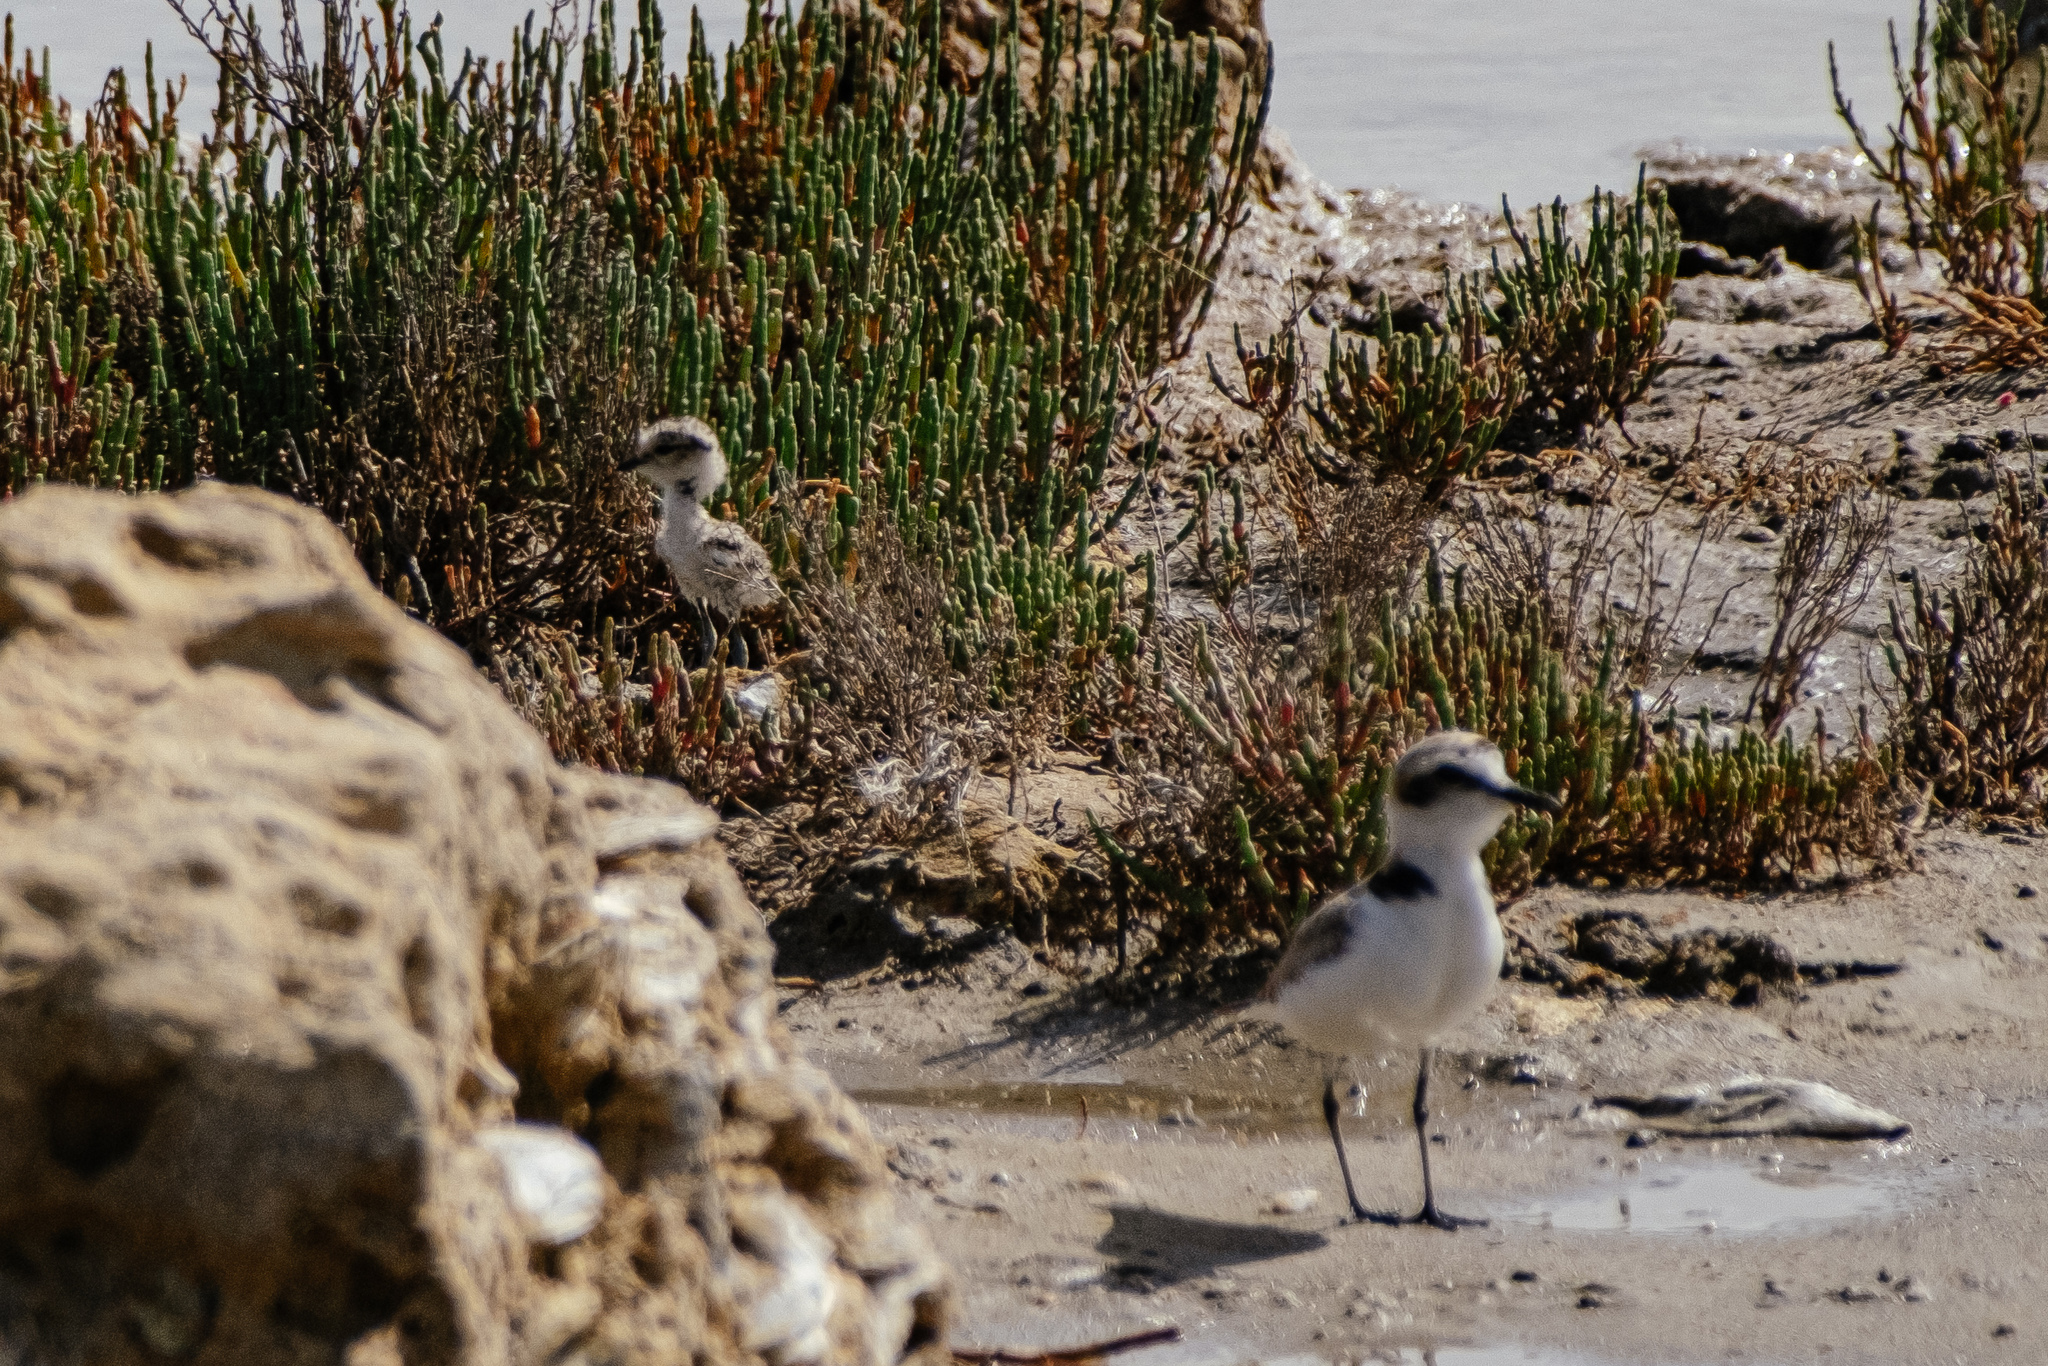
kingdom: Animalia
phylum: Chordata
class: Aves
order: Charadriiformes
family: Charadriidae
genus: Charadrius
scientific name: Charadrius alexandrinus
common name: Kentish plover
